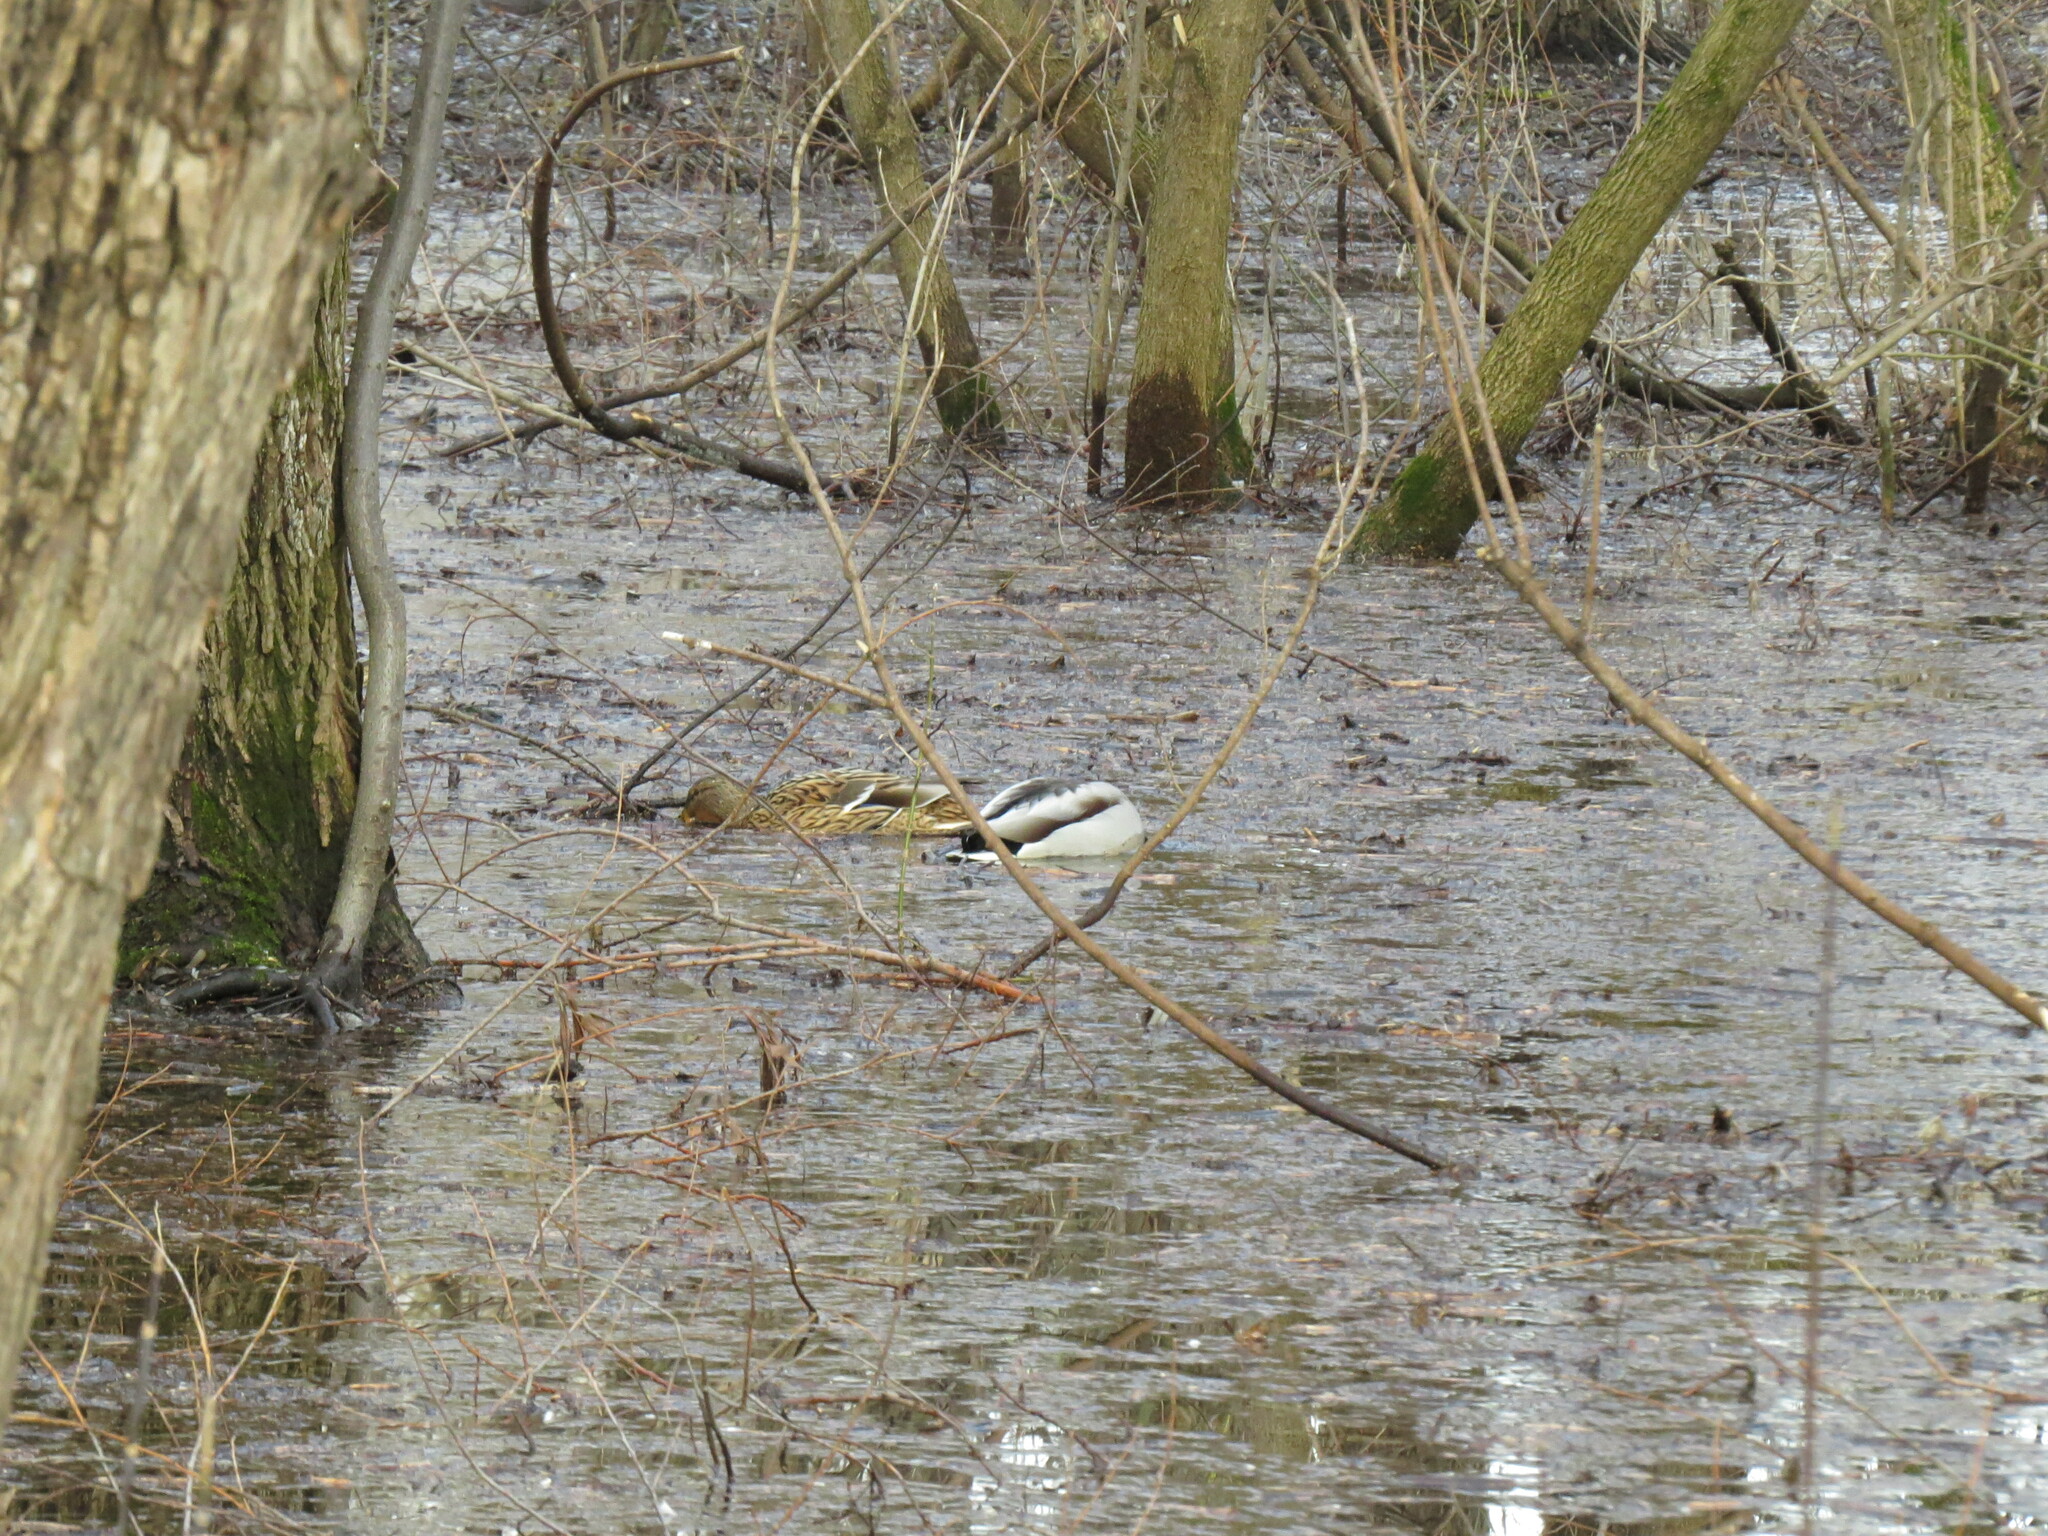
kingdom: Animalia
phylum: Chordata
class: Aves
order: Anseriformes
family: Anatidae
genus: Anas
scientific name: Anas platyrhynchos
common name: Mallard
